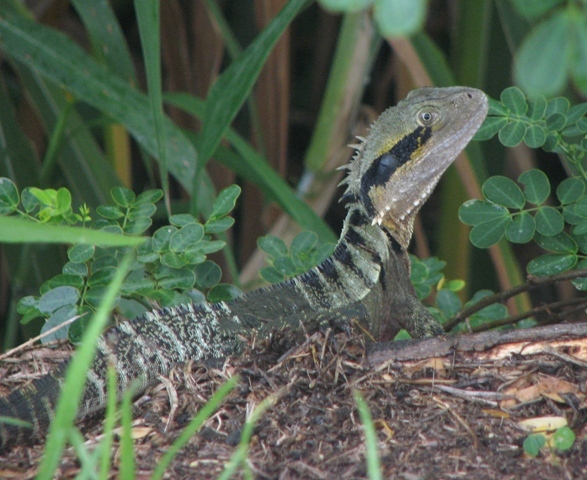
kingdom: Animalia
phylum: Chordata
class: Squamata
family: Agamidae
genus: Intellagama
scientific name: Intellagama lesueurii
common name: Eastern water dragon
